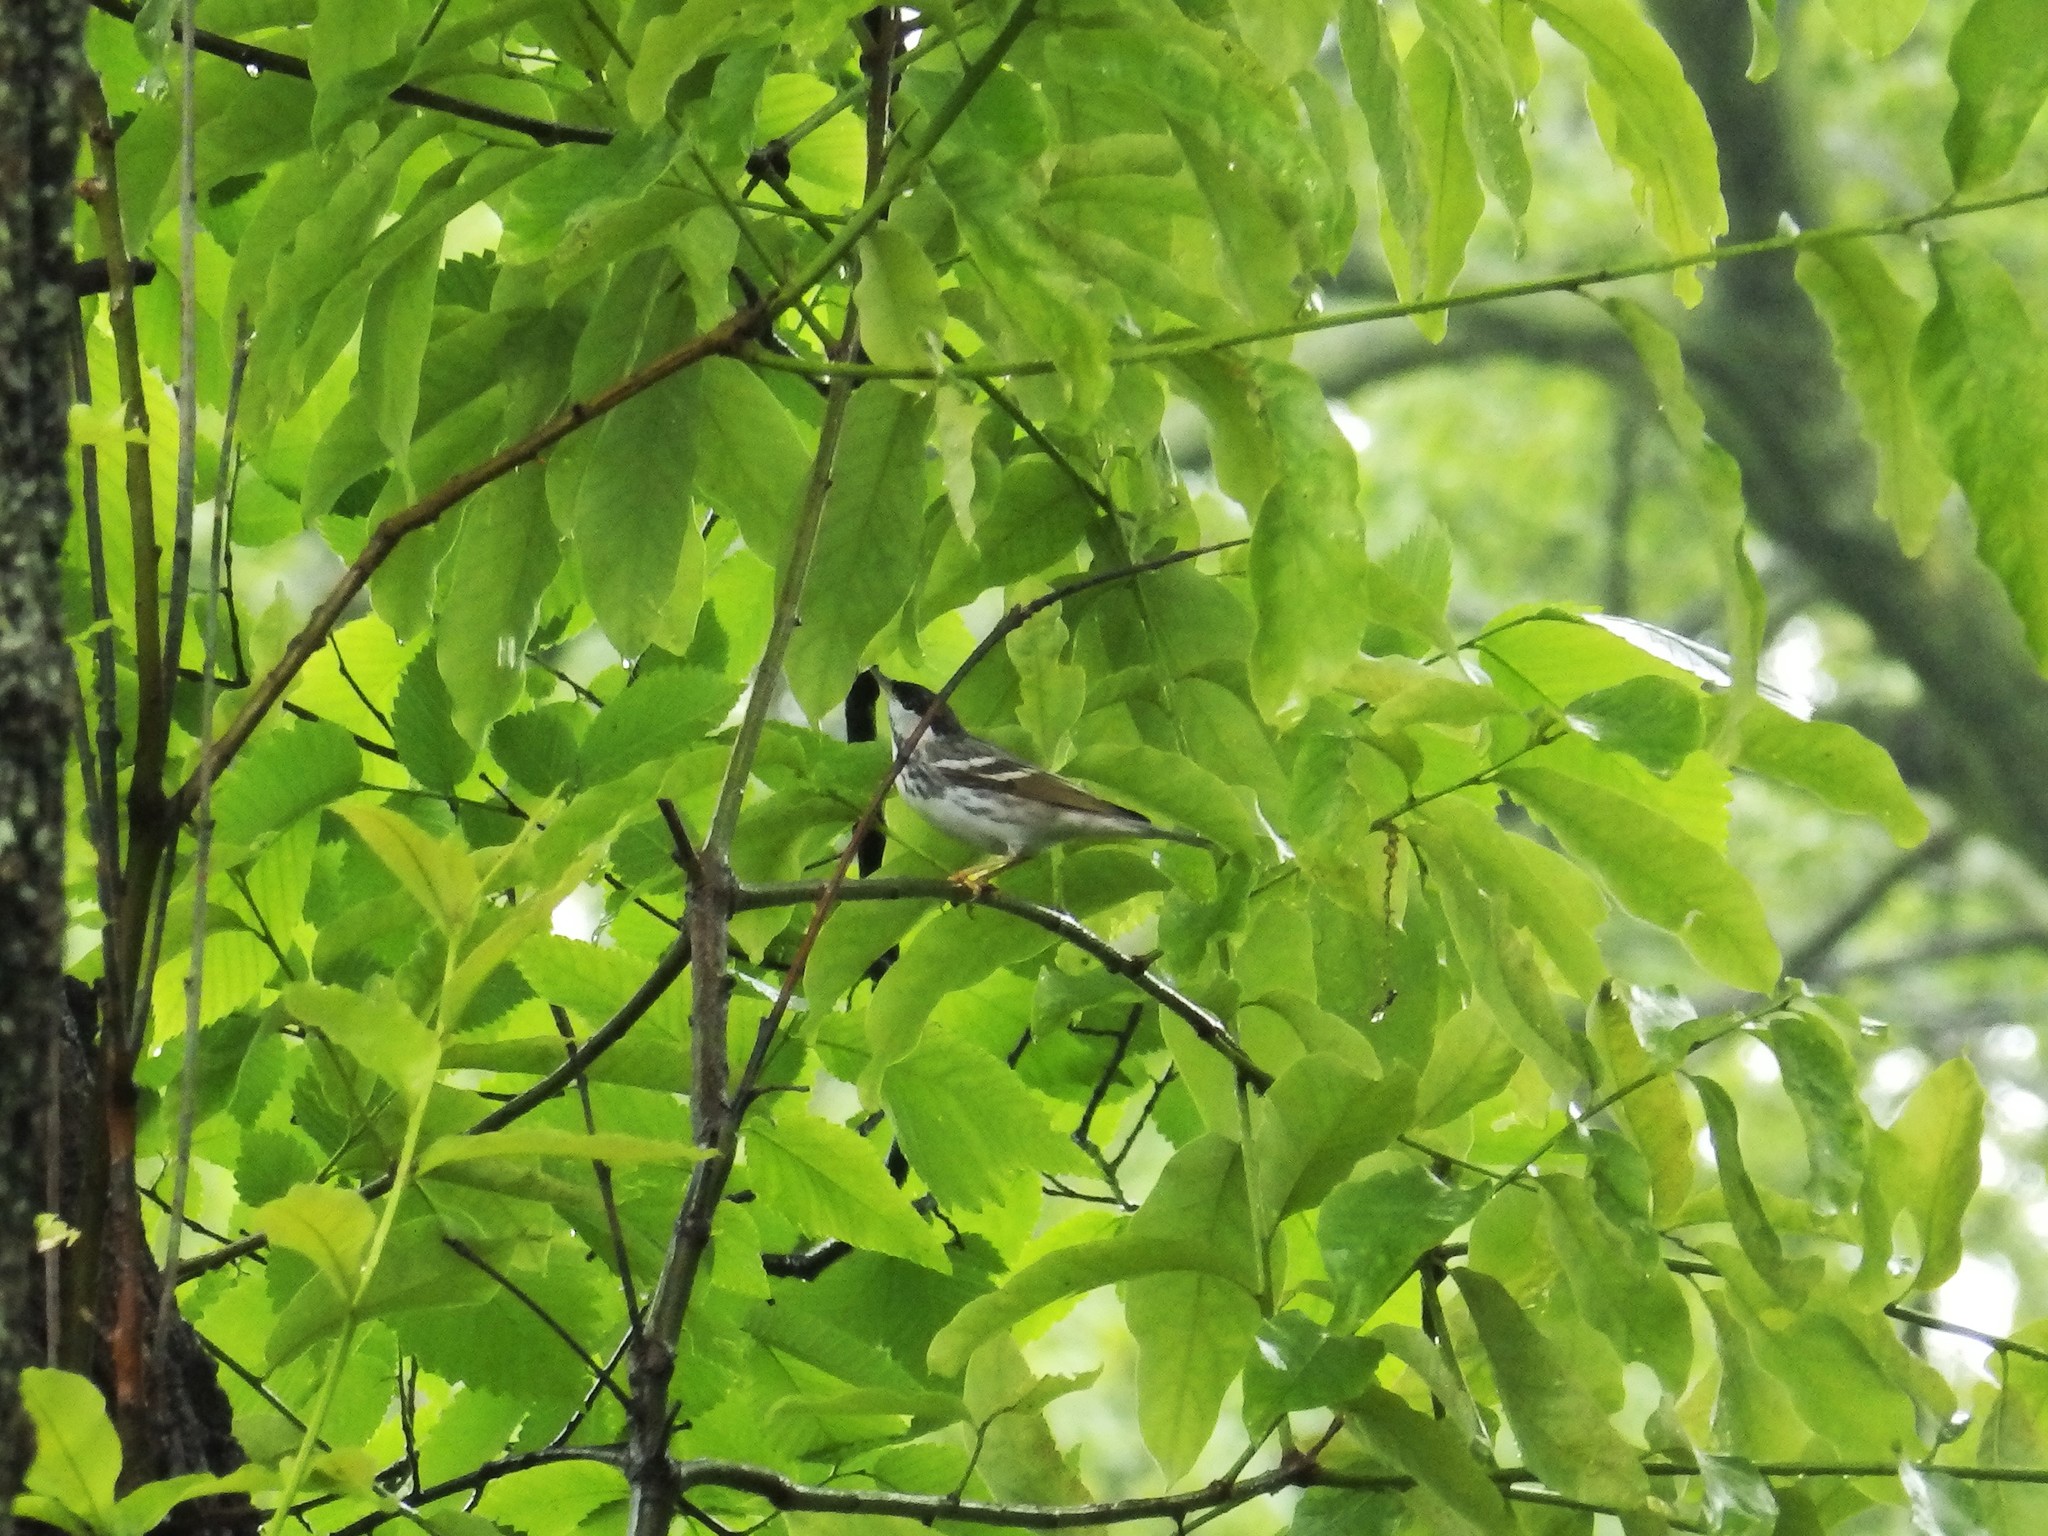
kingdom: Animalia
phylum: Chordata
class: Aves
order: Passeriformes
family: Parulidae
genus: Setophaga
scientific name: Setophaga striata
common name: Blackpoll warbler
